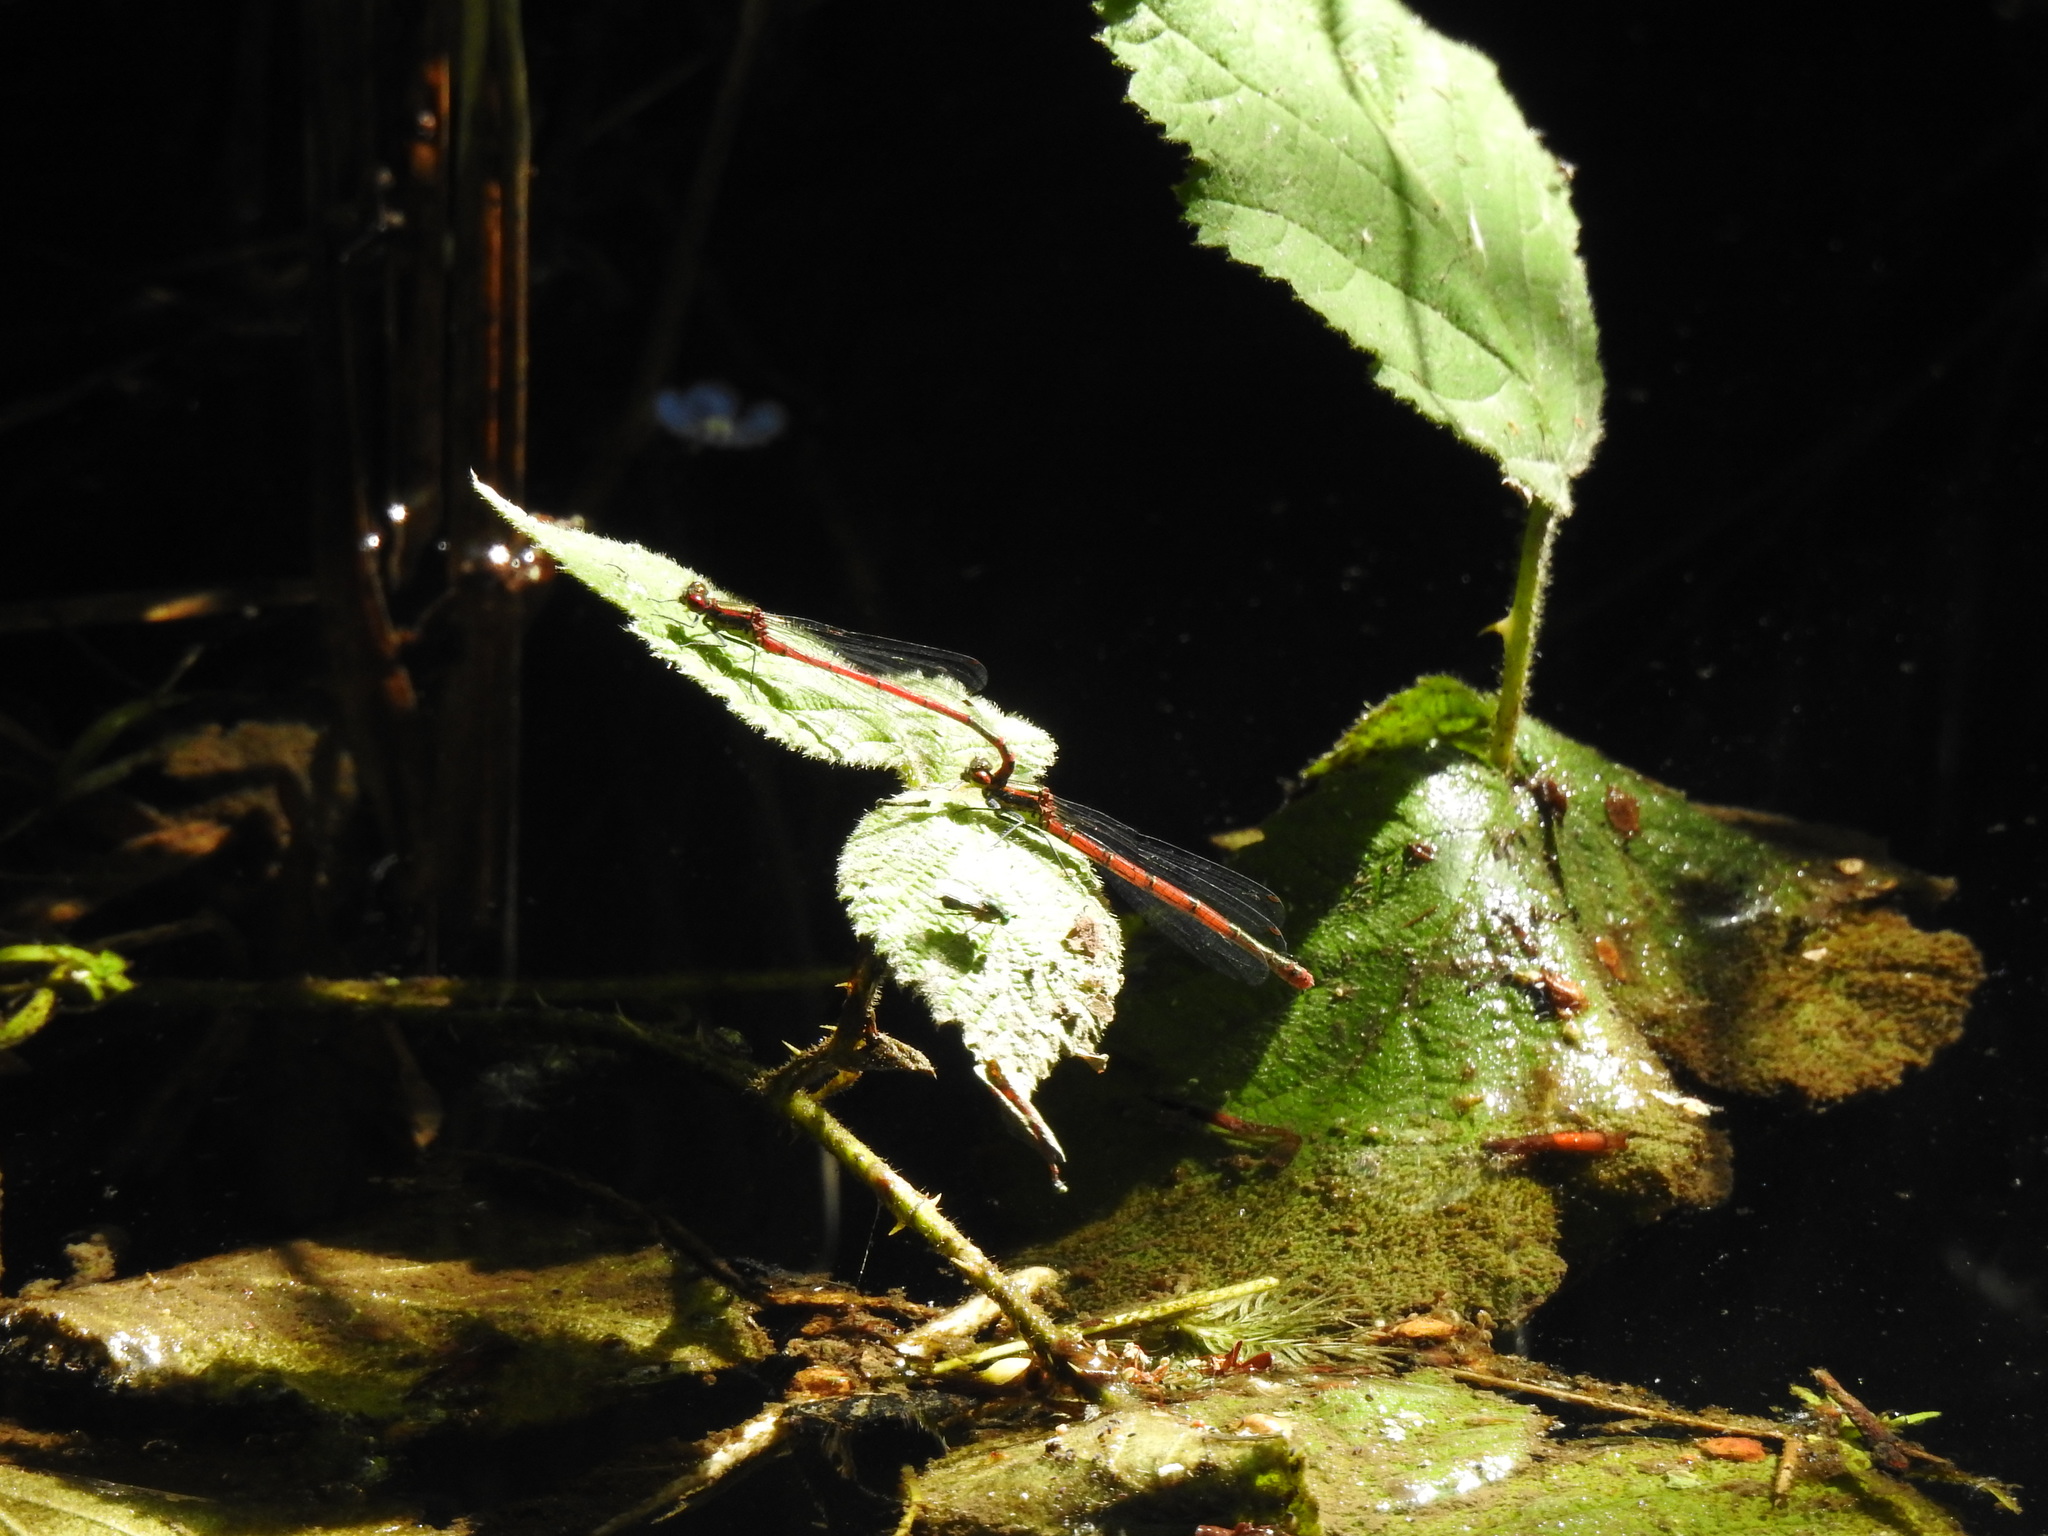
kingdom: Animalia
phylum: Arthropoda
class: Insecta
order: Odonata
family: Coenagrionidae
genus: Pyrrhosoma
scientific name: Pyrrhosoma nymphula
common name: Large red damsel
